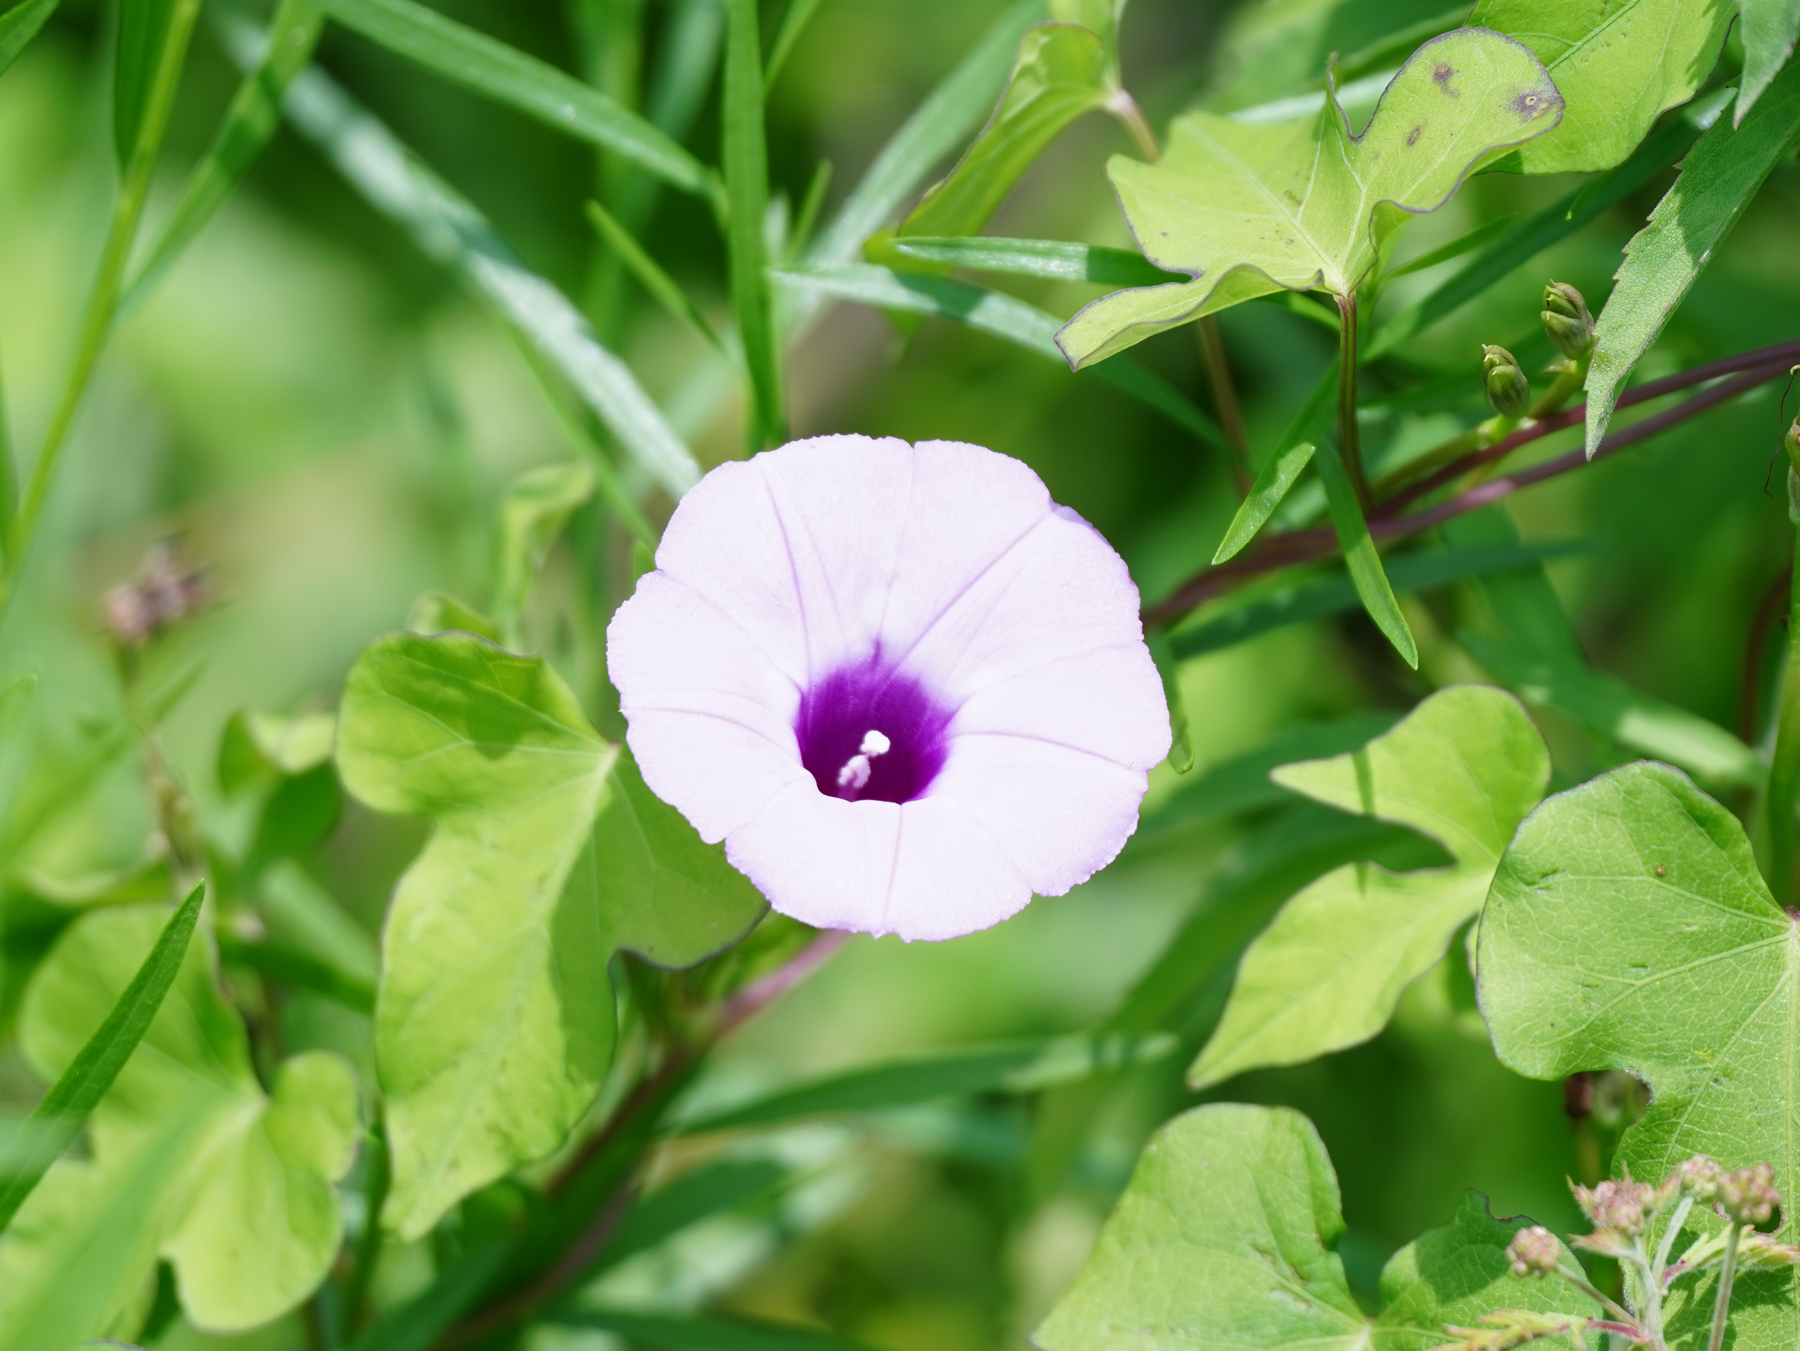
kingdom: Plantae
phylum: Tracheophyta
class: Magnoliopsida
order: Solanales
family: Convolvulaceae
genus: Ipomoea
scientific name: Ipomoea cordatotriloba
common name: Cotton morning glory
